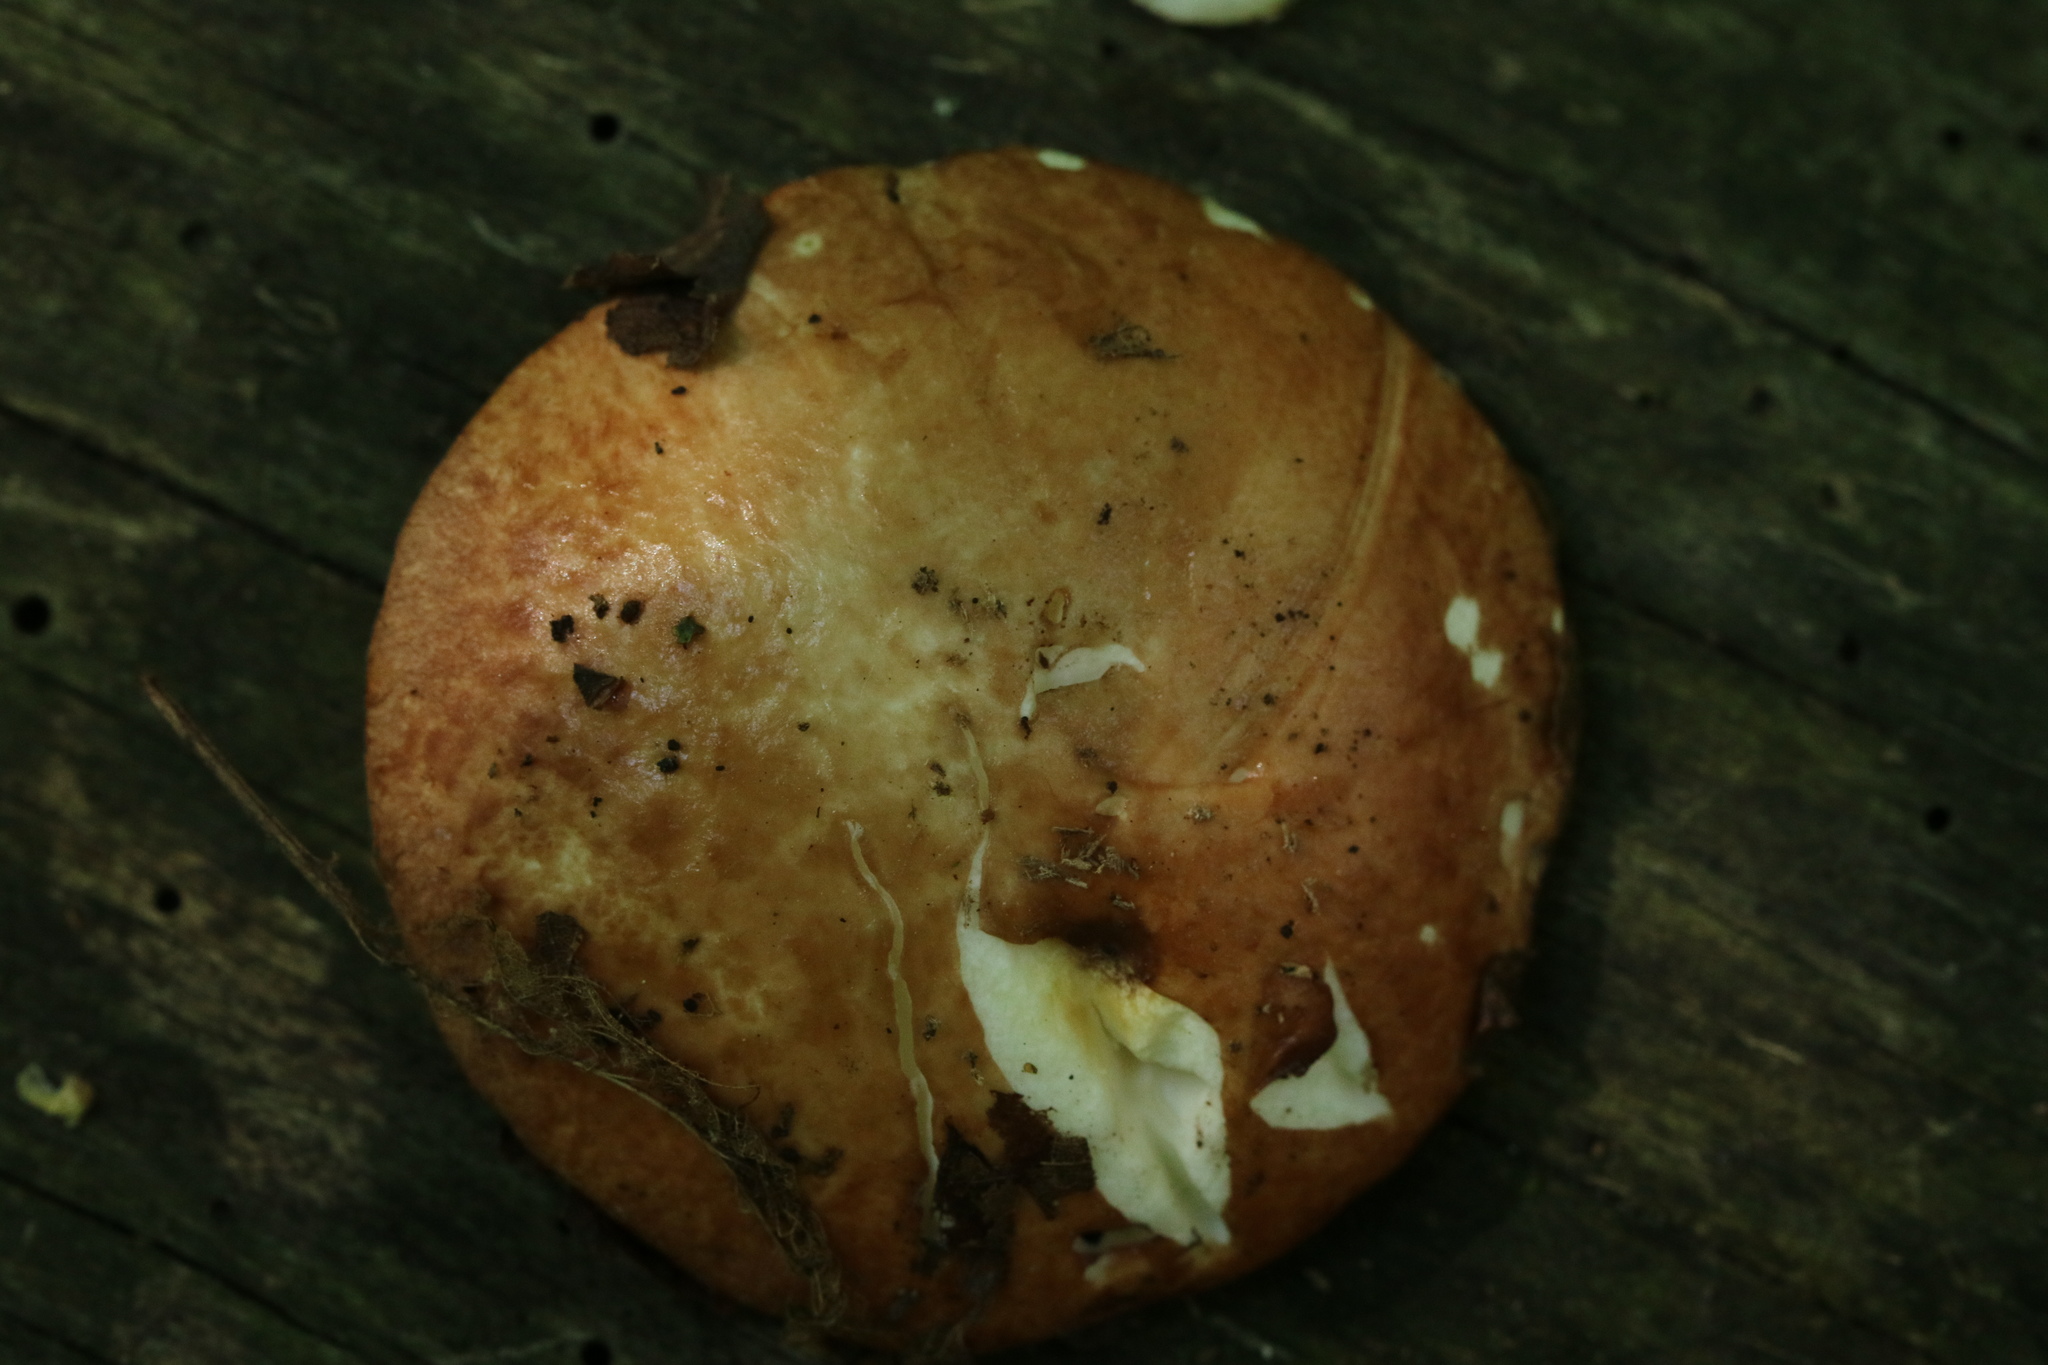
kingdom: Fungi
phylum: Basidiomycota
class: Agaricomycetes
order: Boletales
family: Suillaceae
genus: Suillus
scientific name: Suillus granulatus
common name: Weeping bolete
